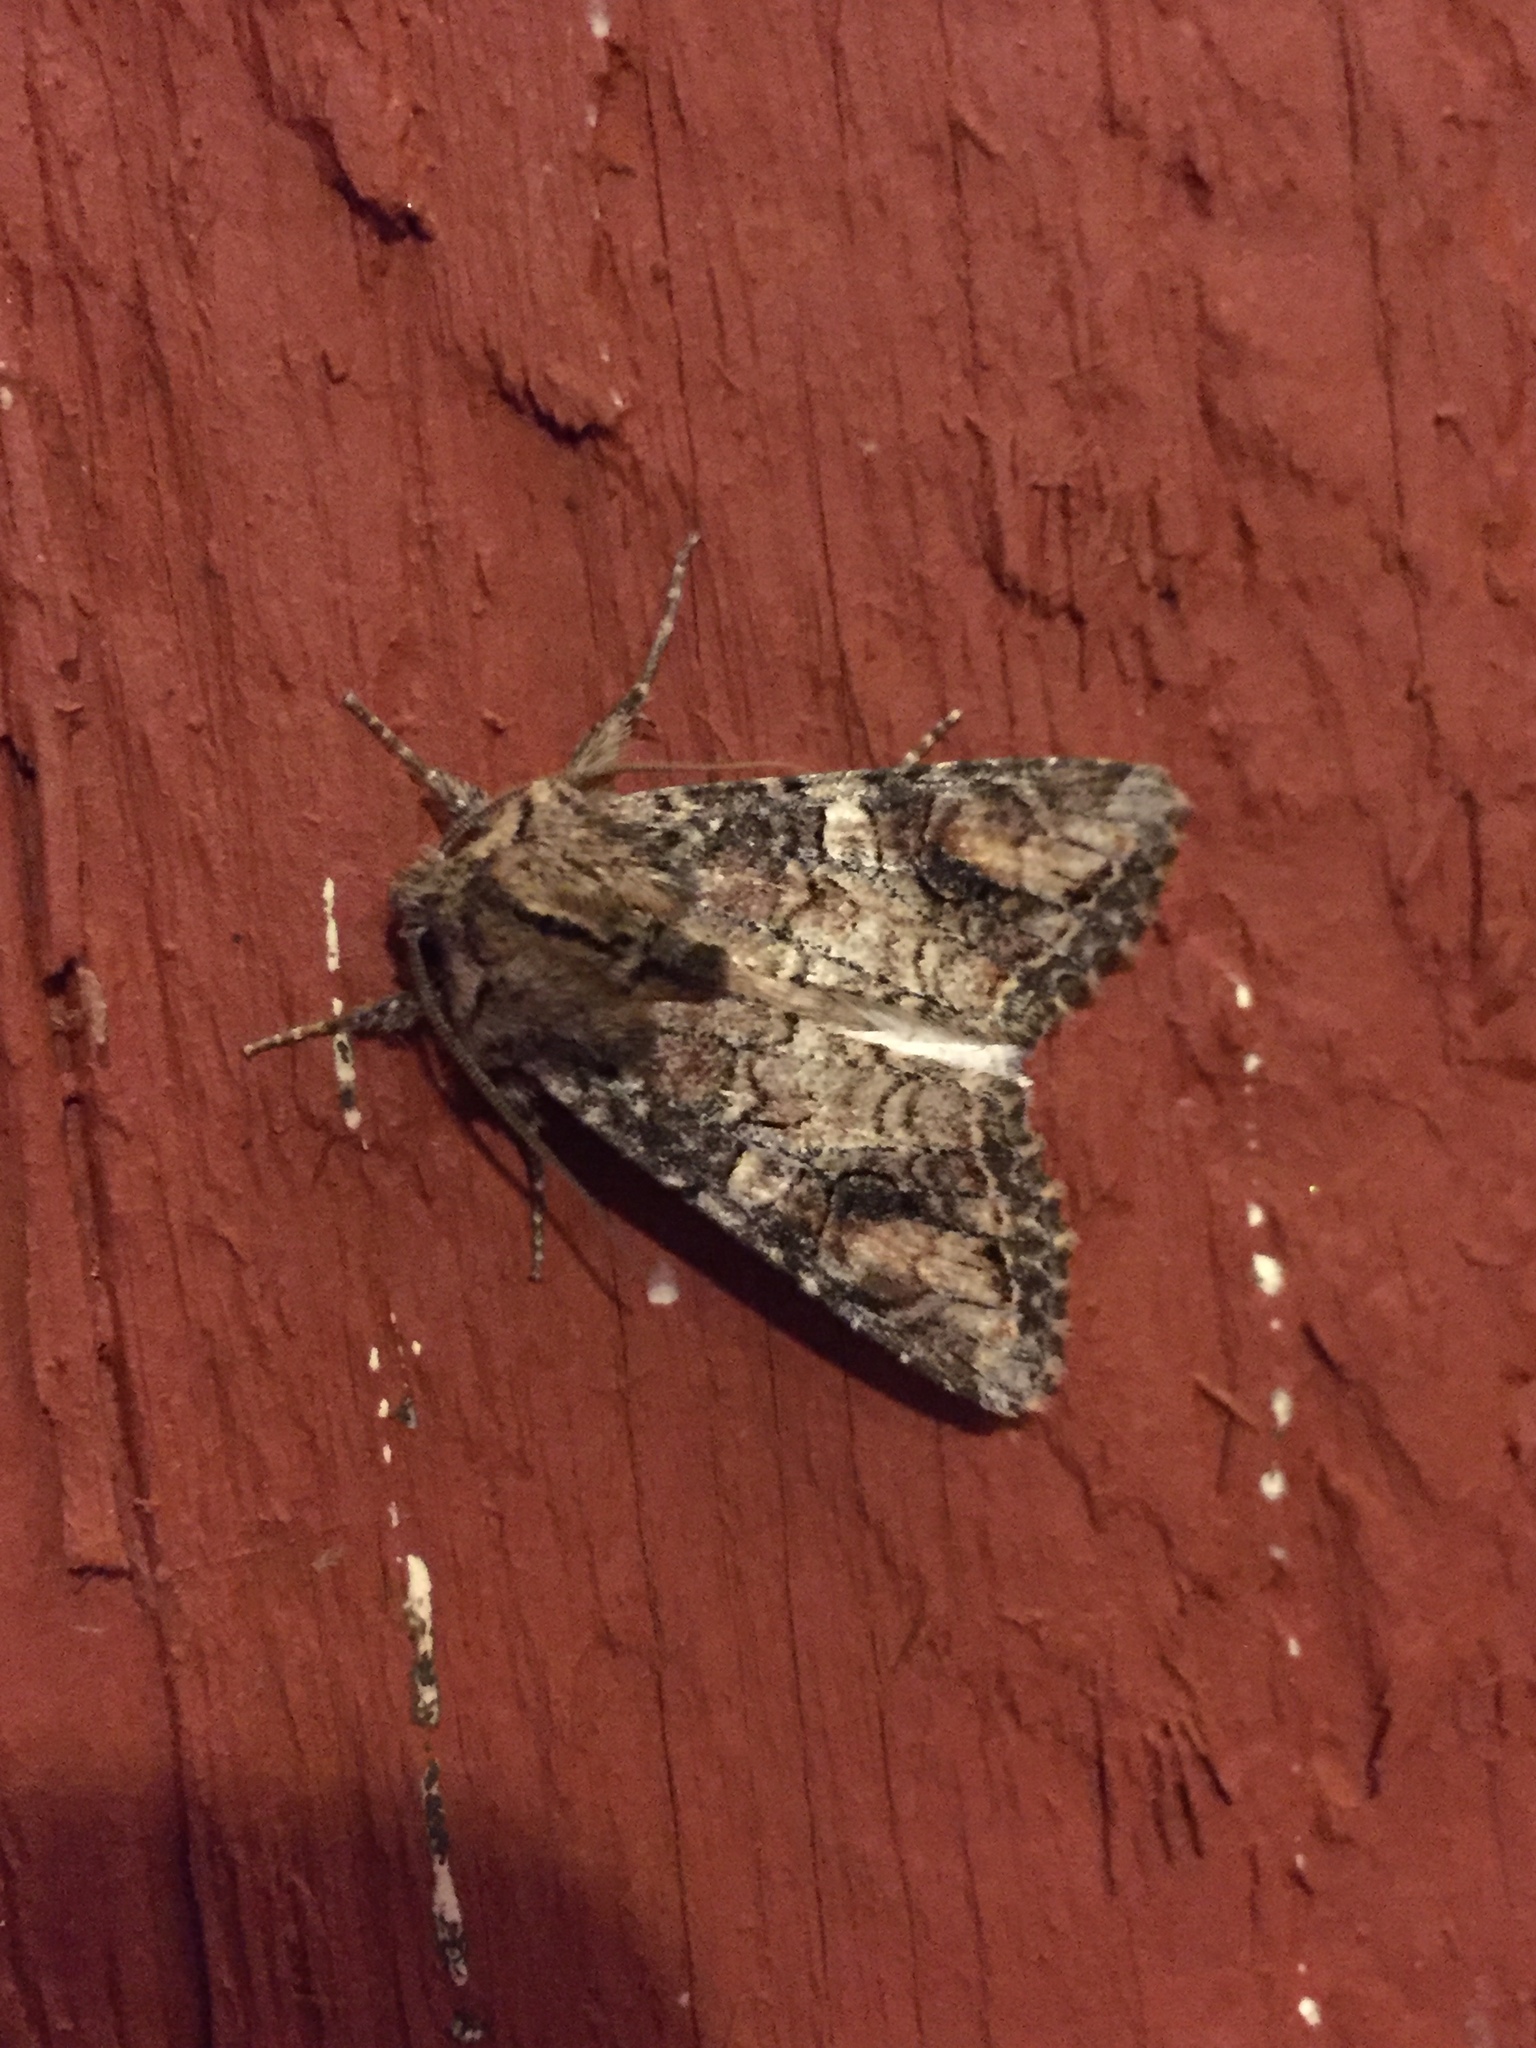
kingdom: Animalia
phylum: Arthropoda
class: Insecta
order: Lepidoptera
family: Noctuidae
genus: Egira
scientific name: Egira perlubens
